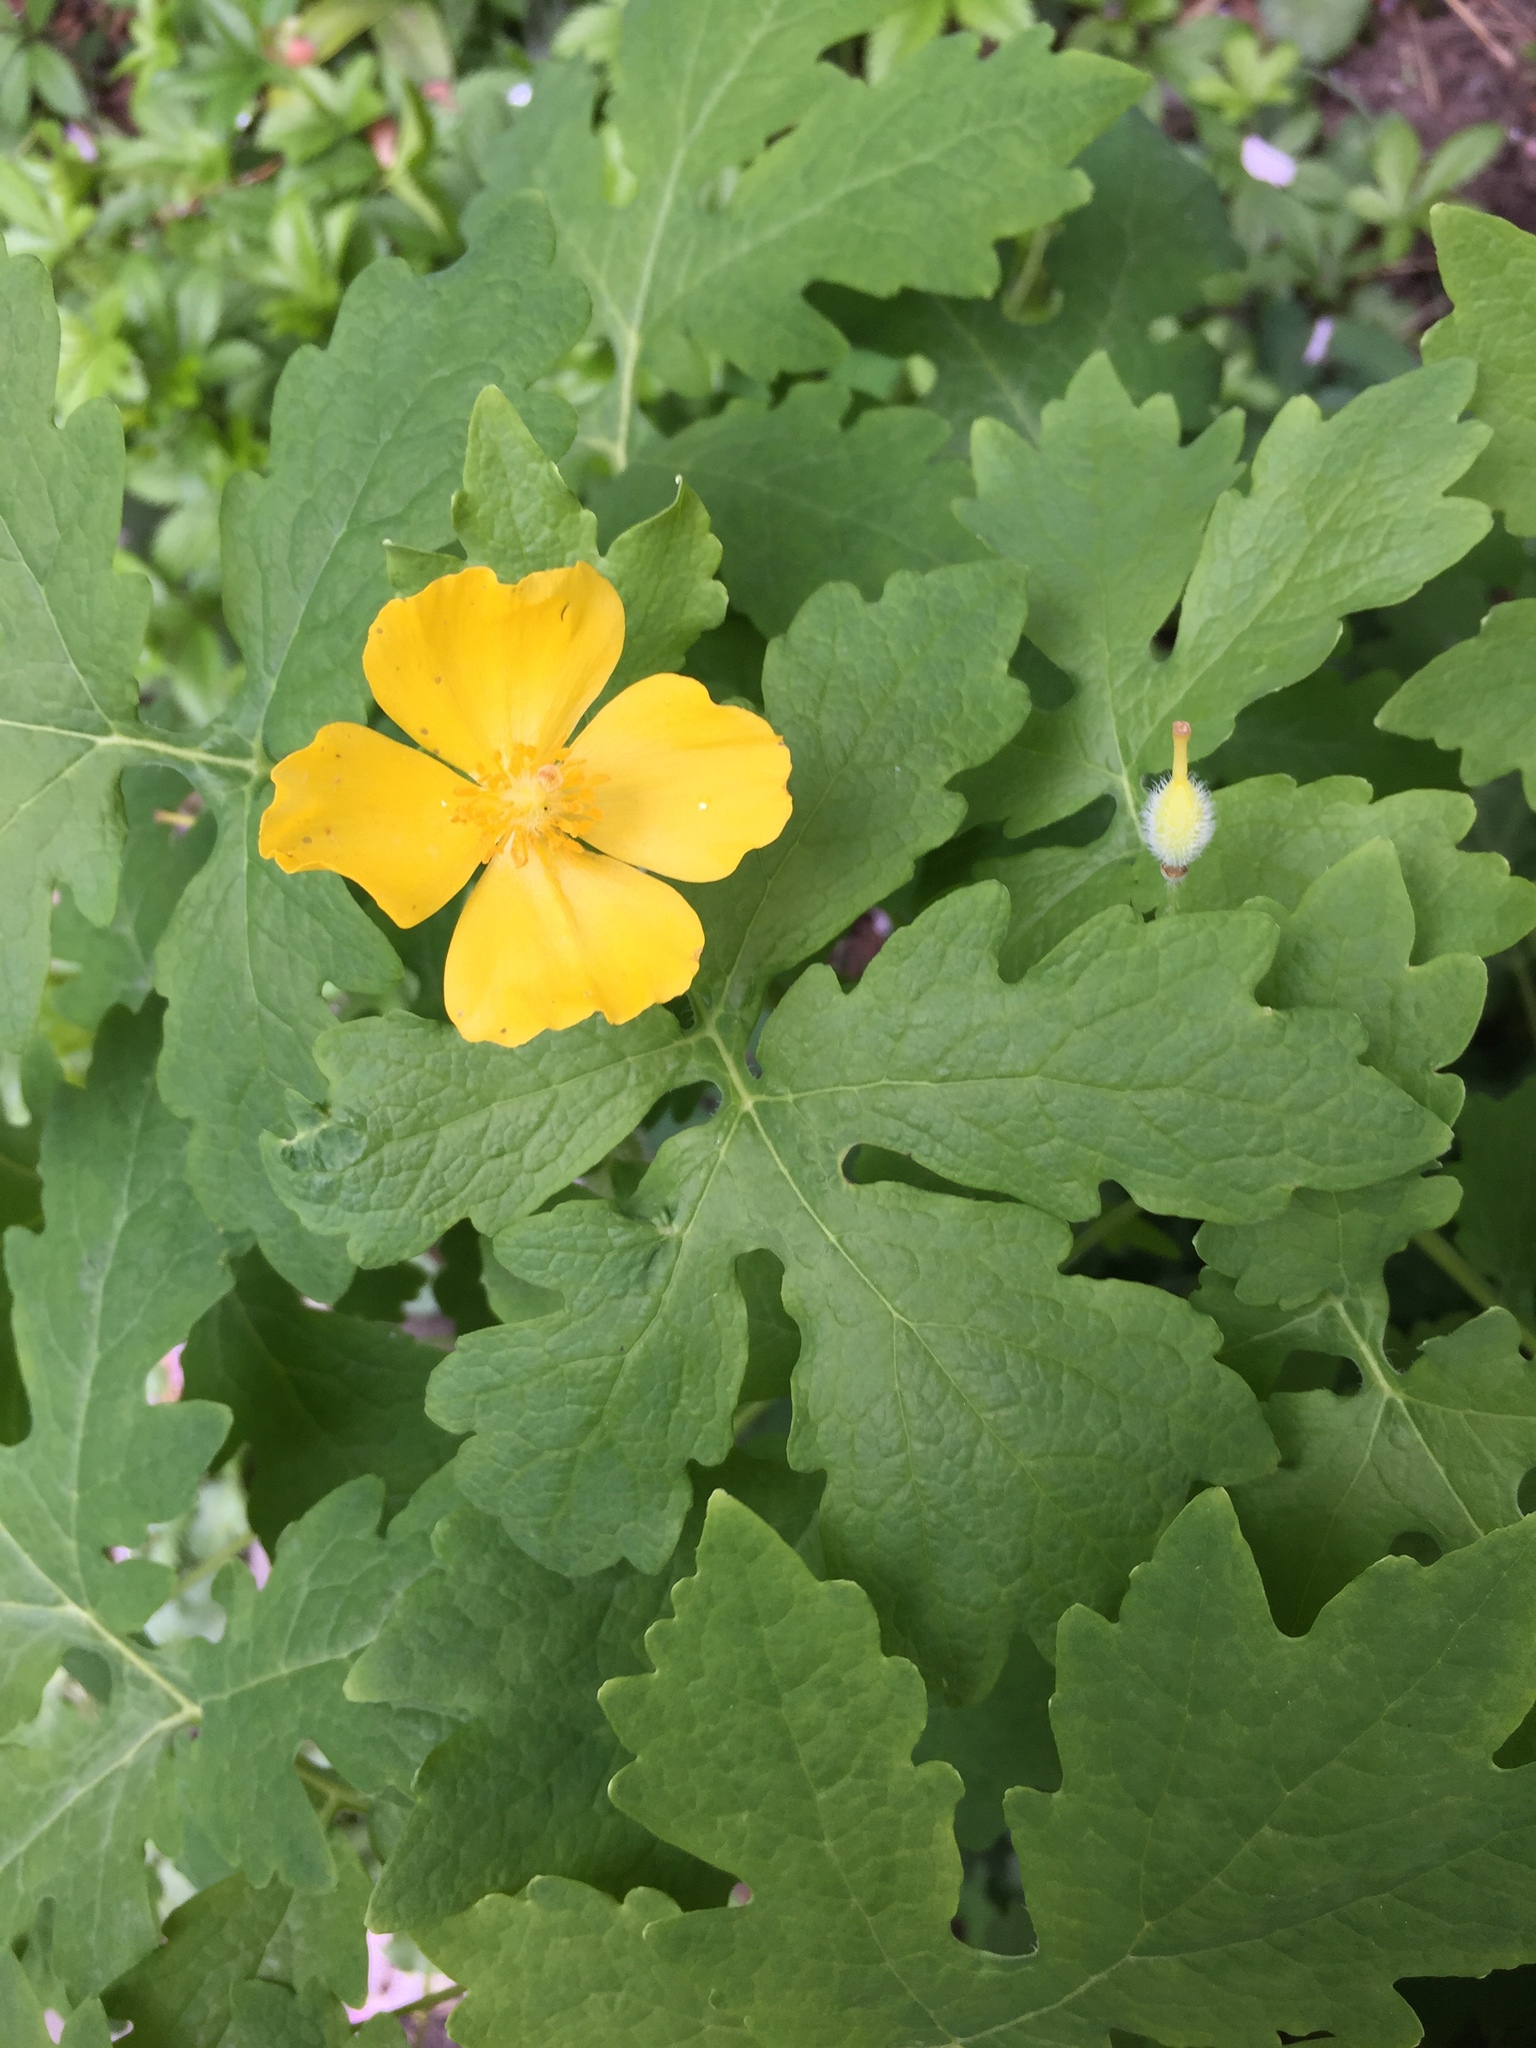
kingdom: Plantae
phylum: Tracheophyta
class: Magnoliopsida
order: Ranunculales
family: Papaveraceae
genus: Stylophorum
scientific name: Stylophorum diphyllum
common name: Celandine poppy
